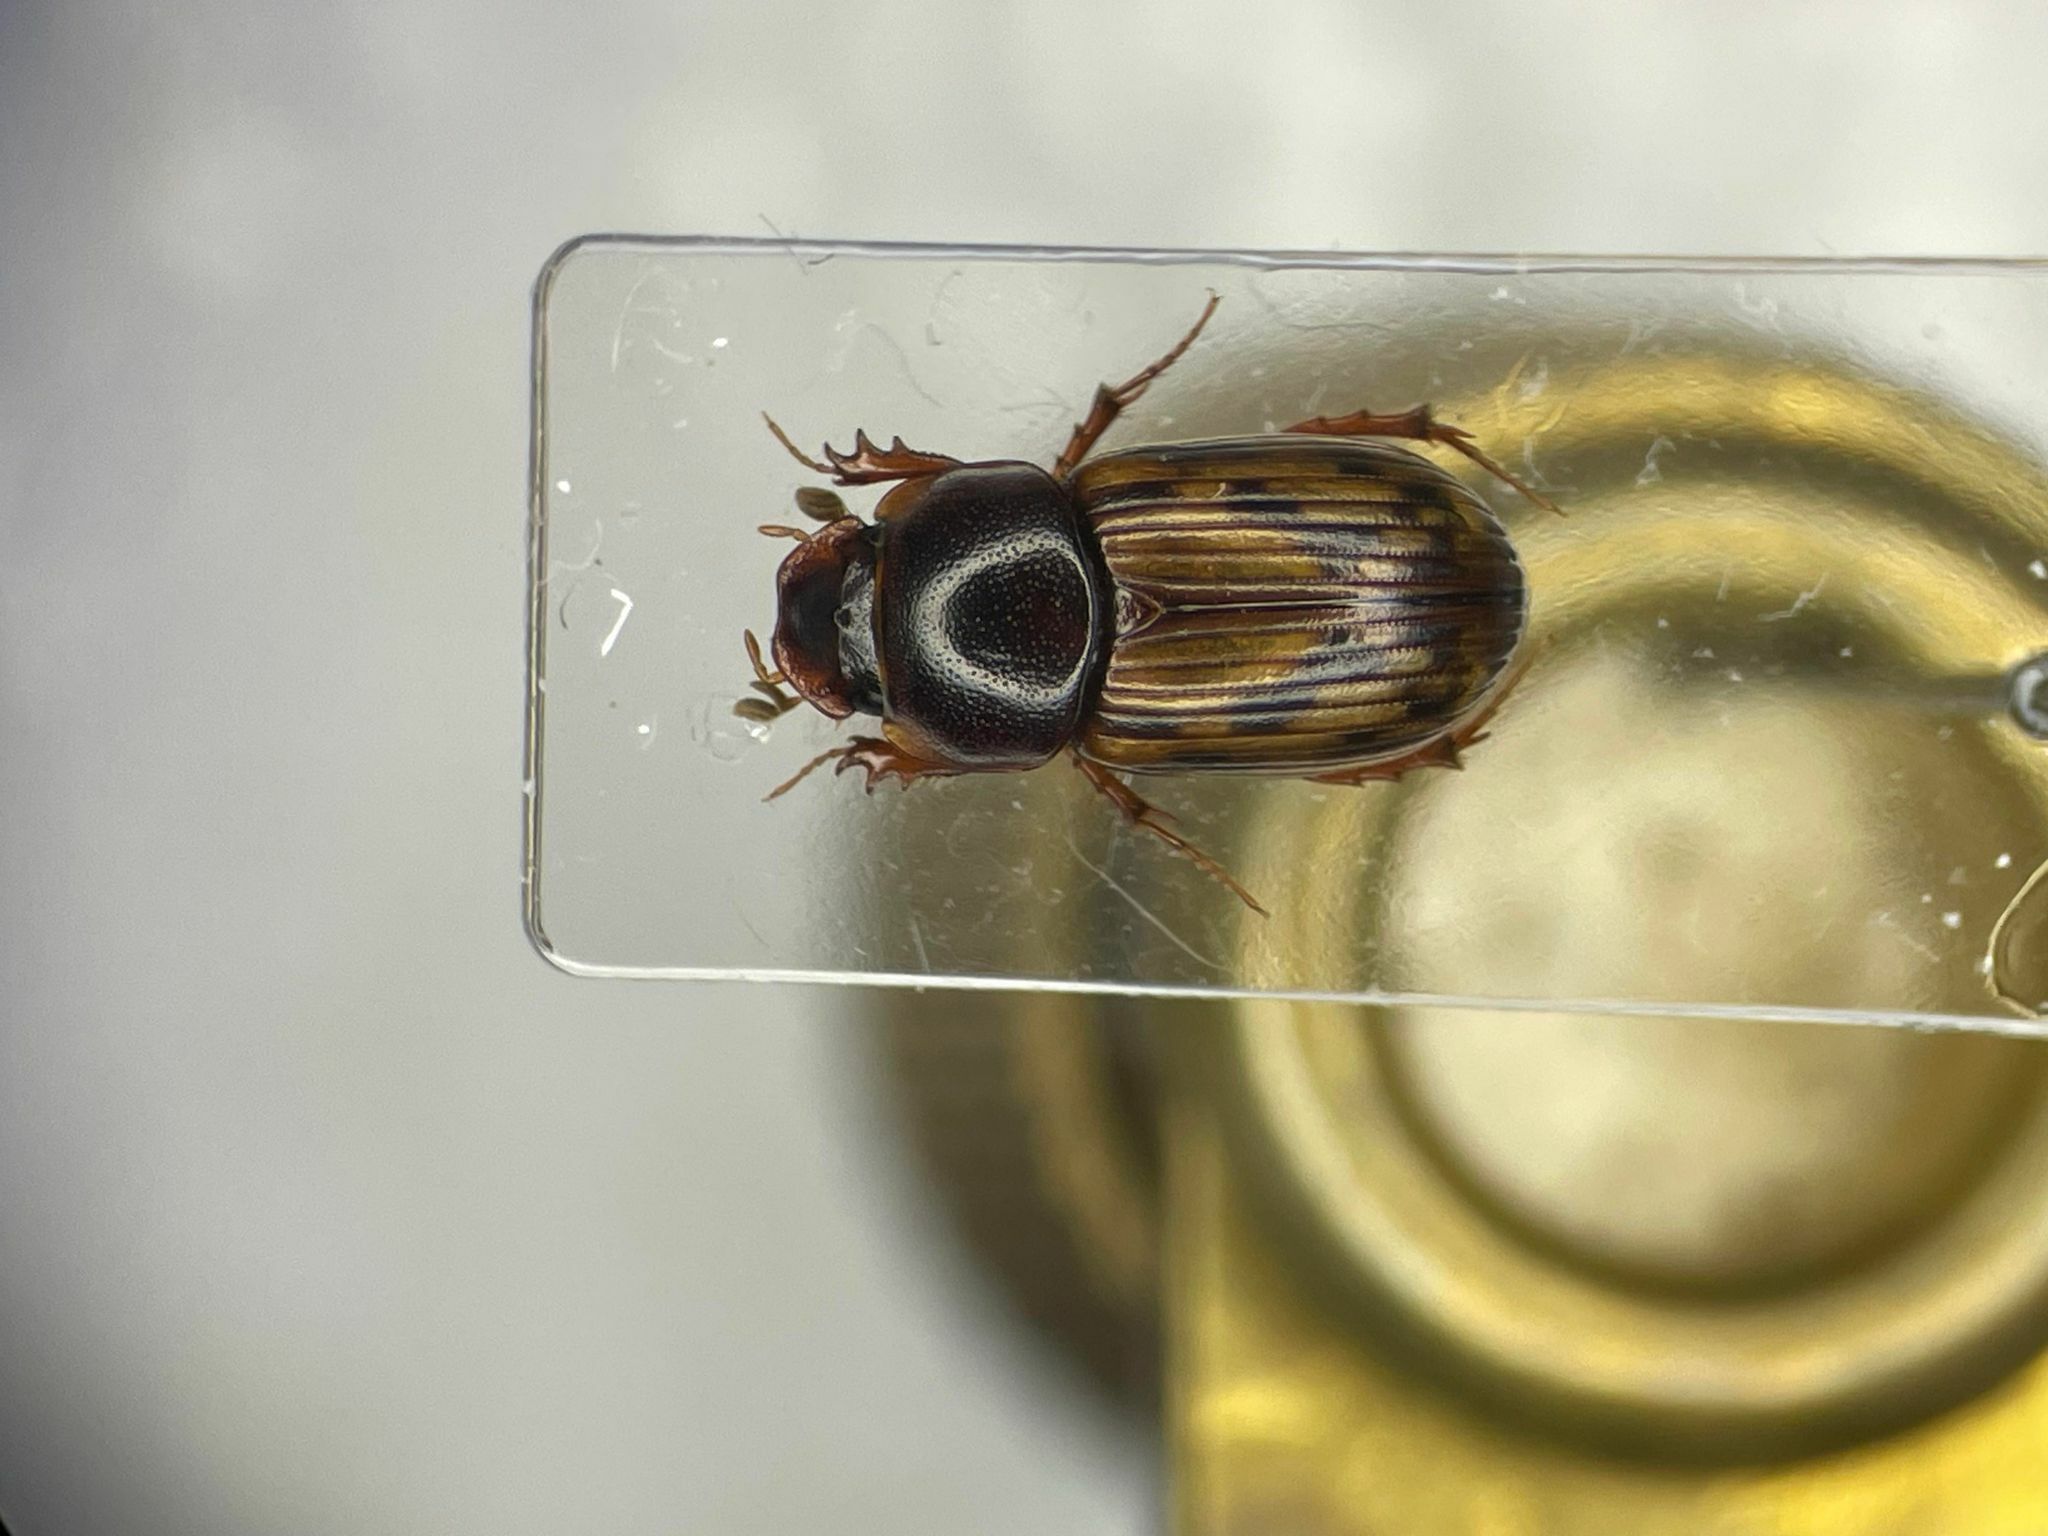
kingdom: Animalia
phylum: Arthropoda
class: Insecta
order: Coleoptera
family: Scarabaeidae
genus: Agoliinus
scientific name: Agoliinus leopardus
